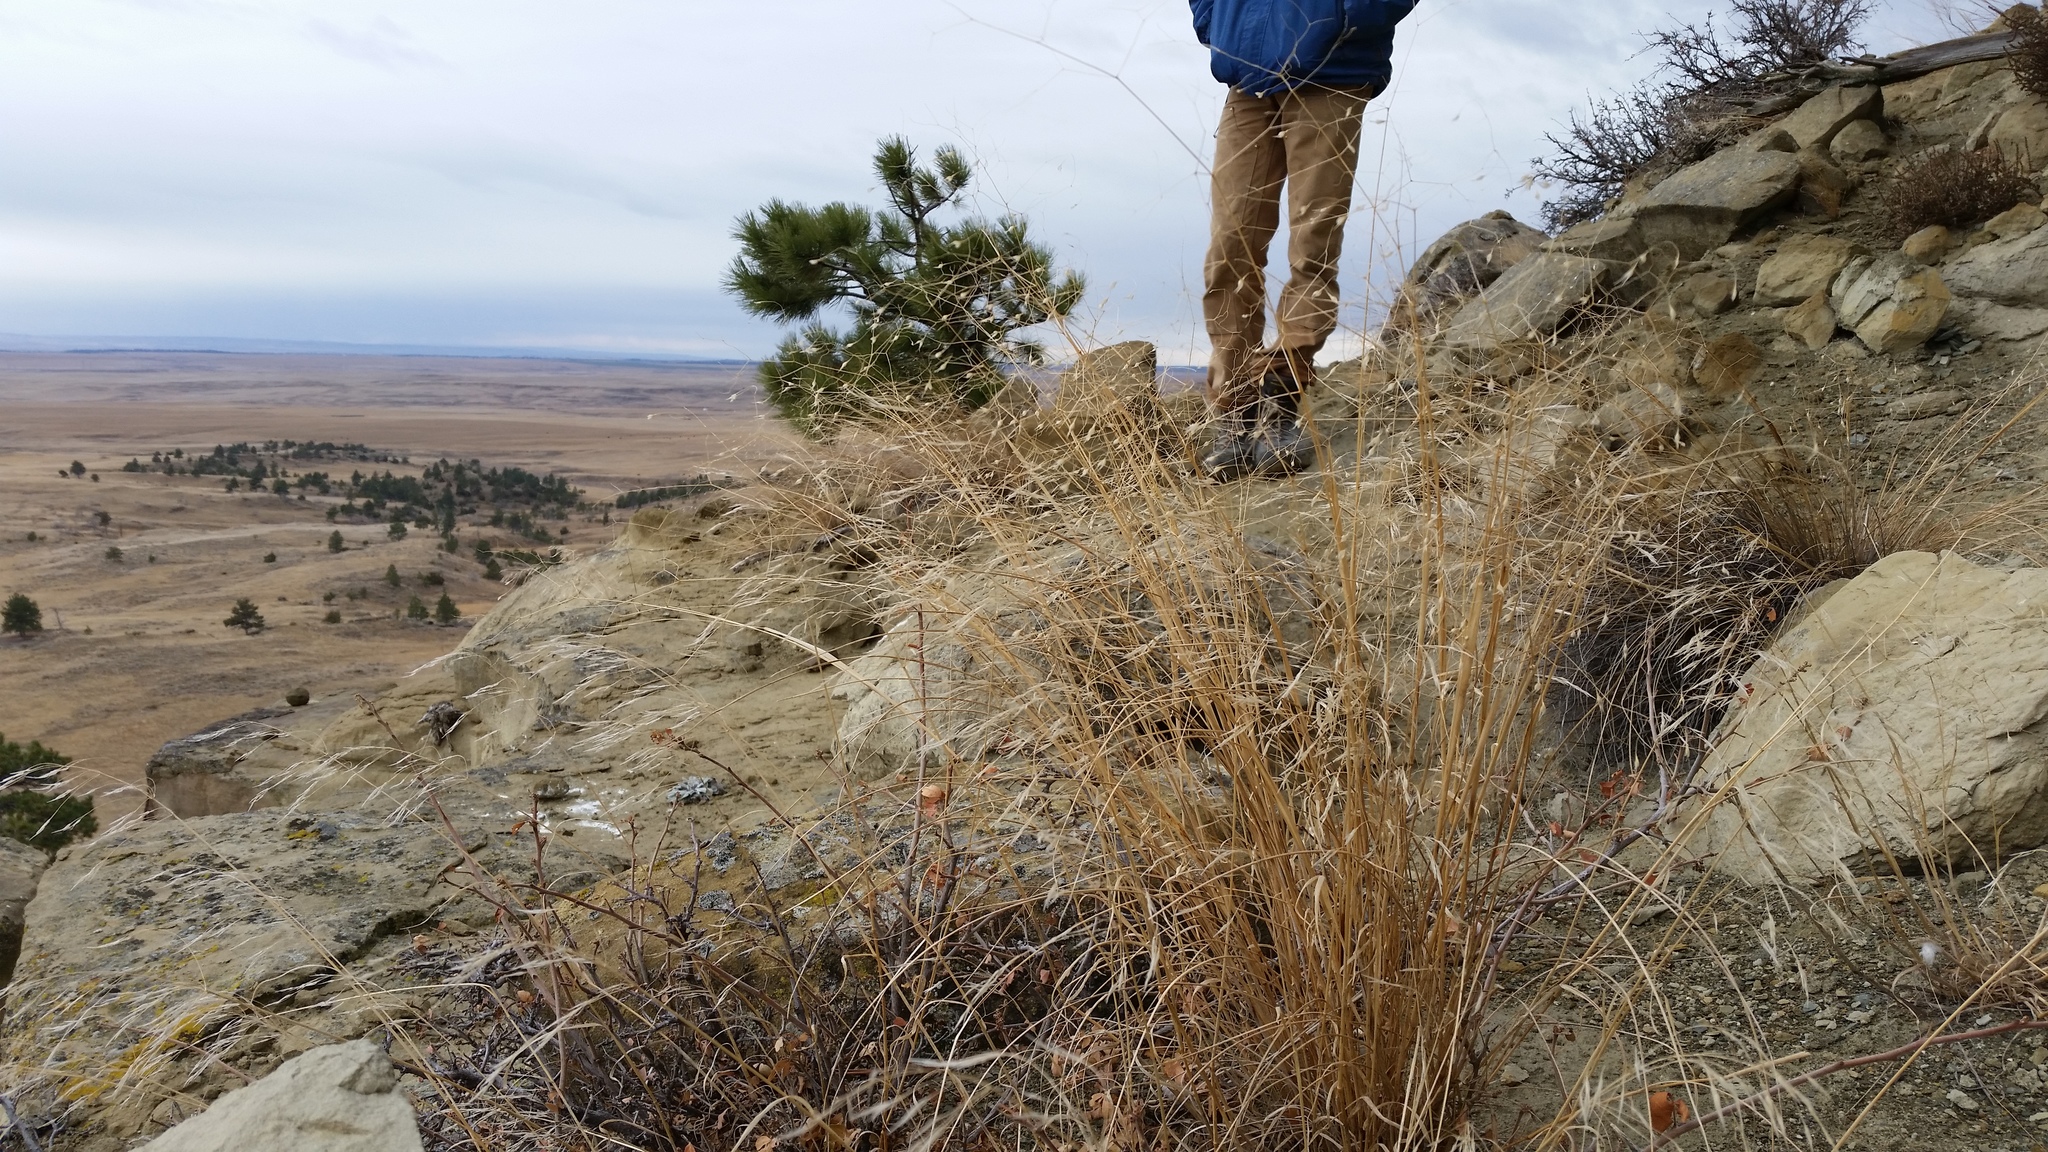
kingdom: Plantae
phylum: Tracheophyta
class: Liliopsida
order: Poales
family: Poaceae
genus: Eriocoma
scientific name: Eriocoma hymenoides
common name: Indian mountain ricegrass
